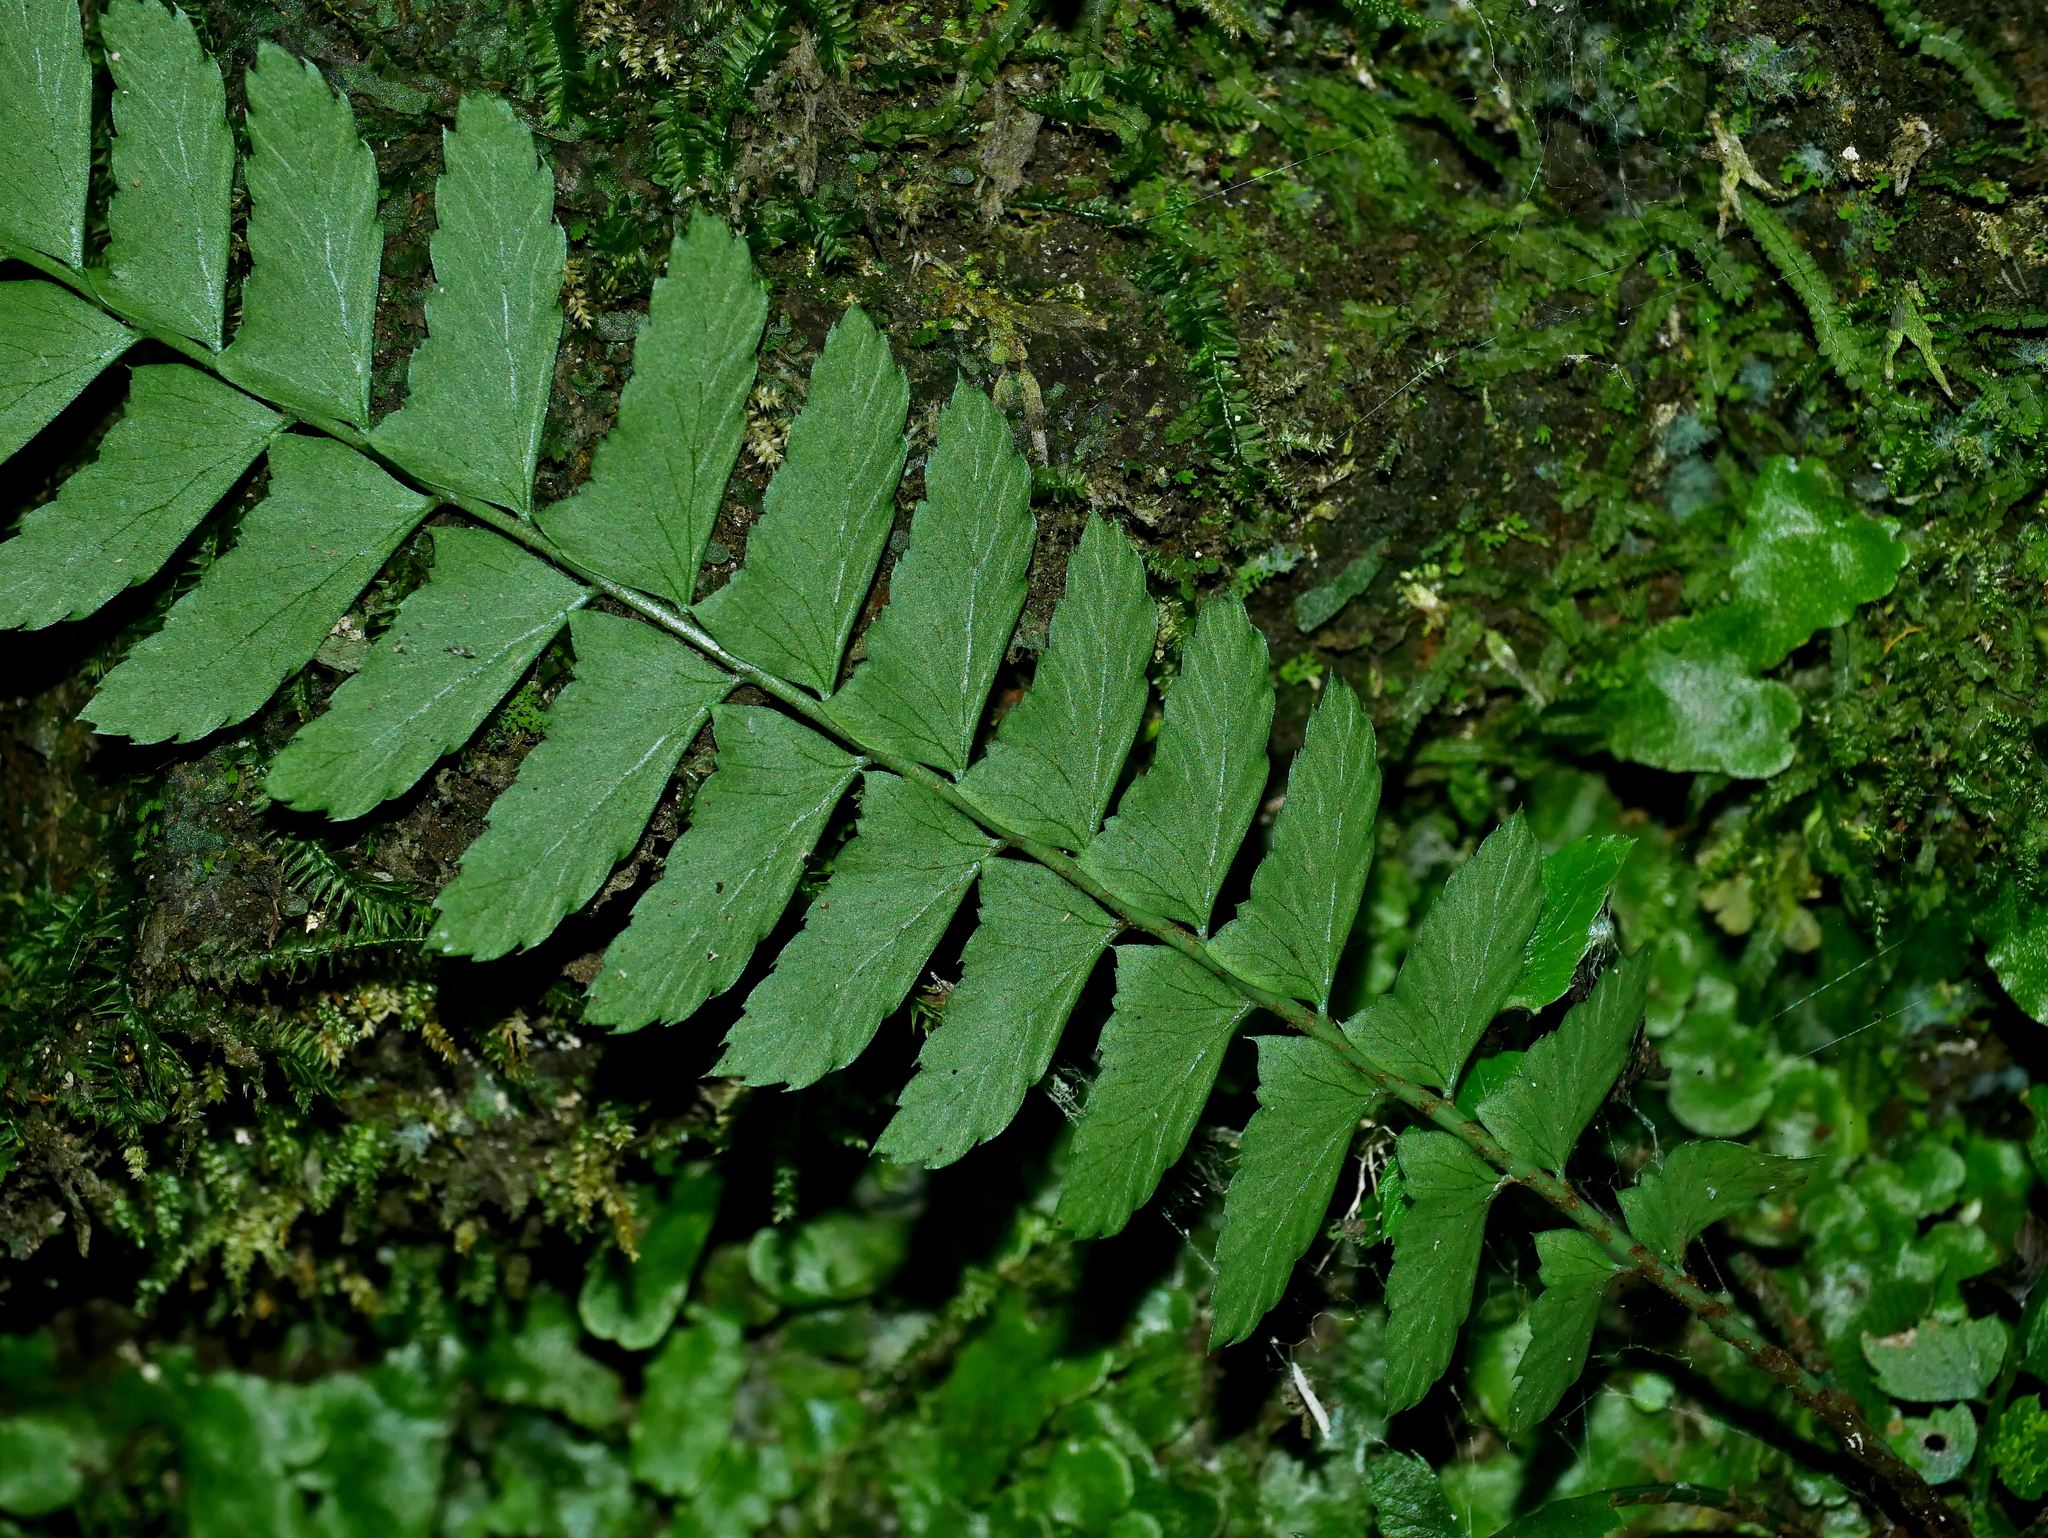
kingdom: Plantae
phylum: Tracheophyta
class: Polypodiopsida
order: Polypodiales
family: Dryopteridaceae
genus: Polystichum
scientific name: Polystichum hancockii
